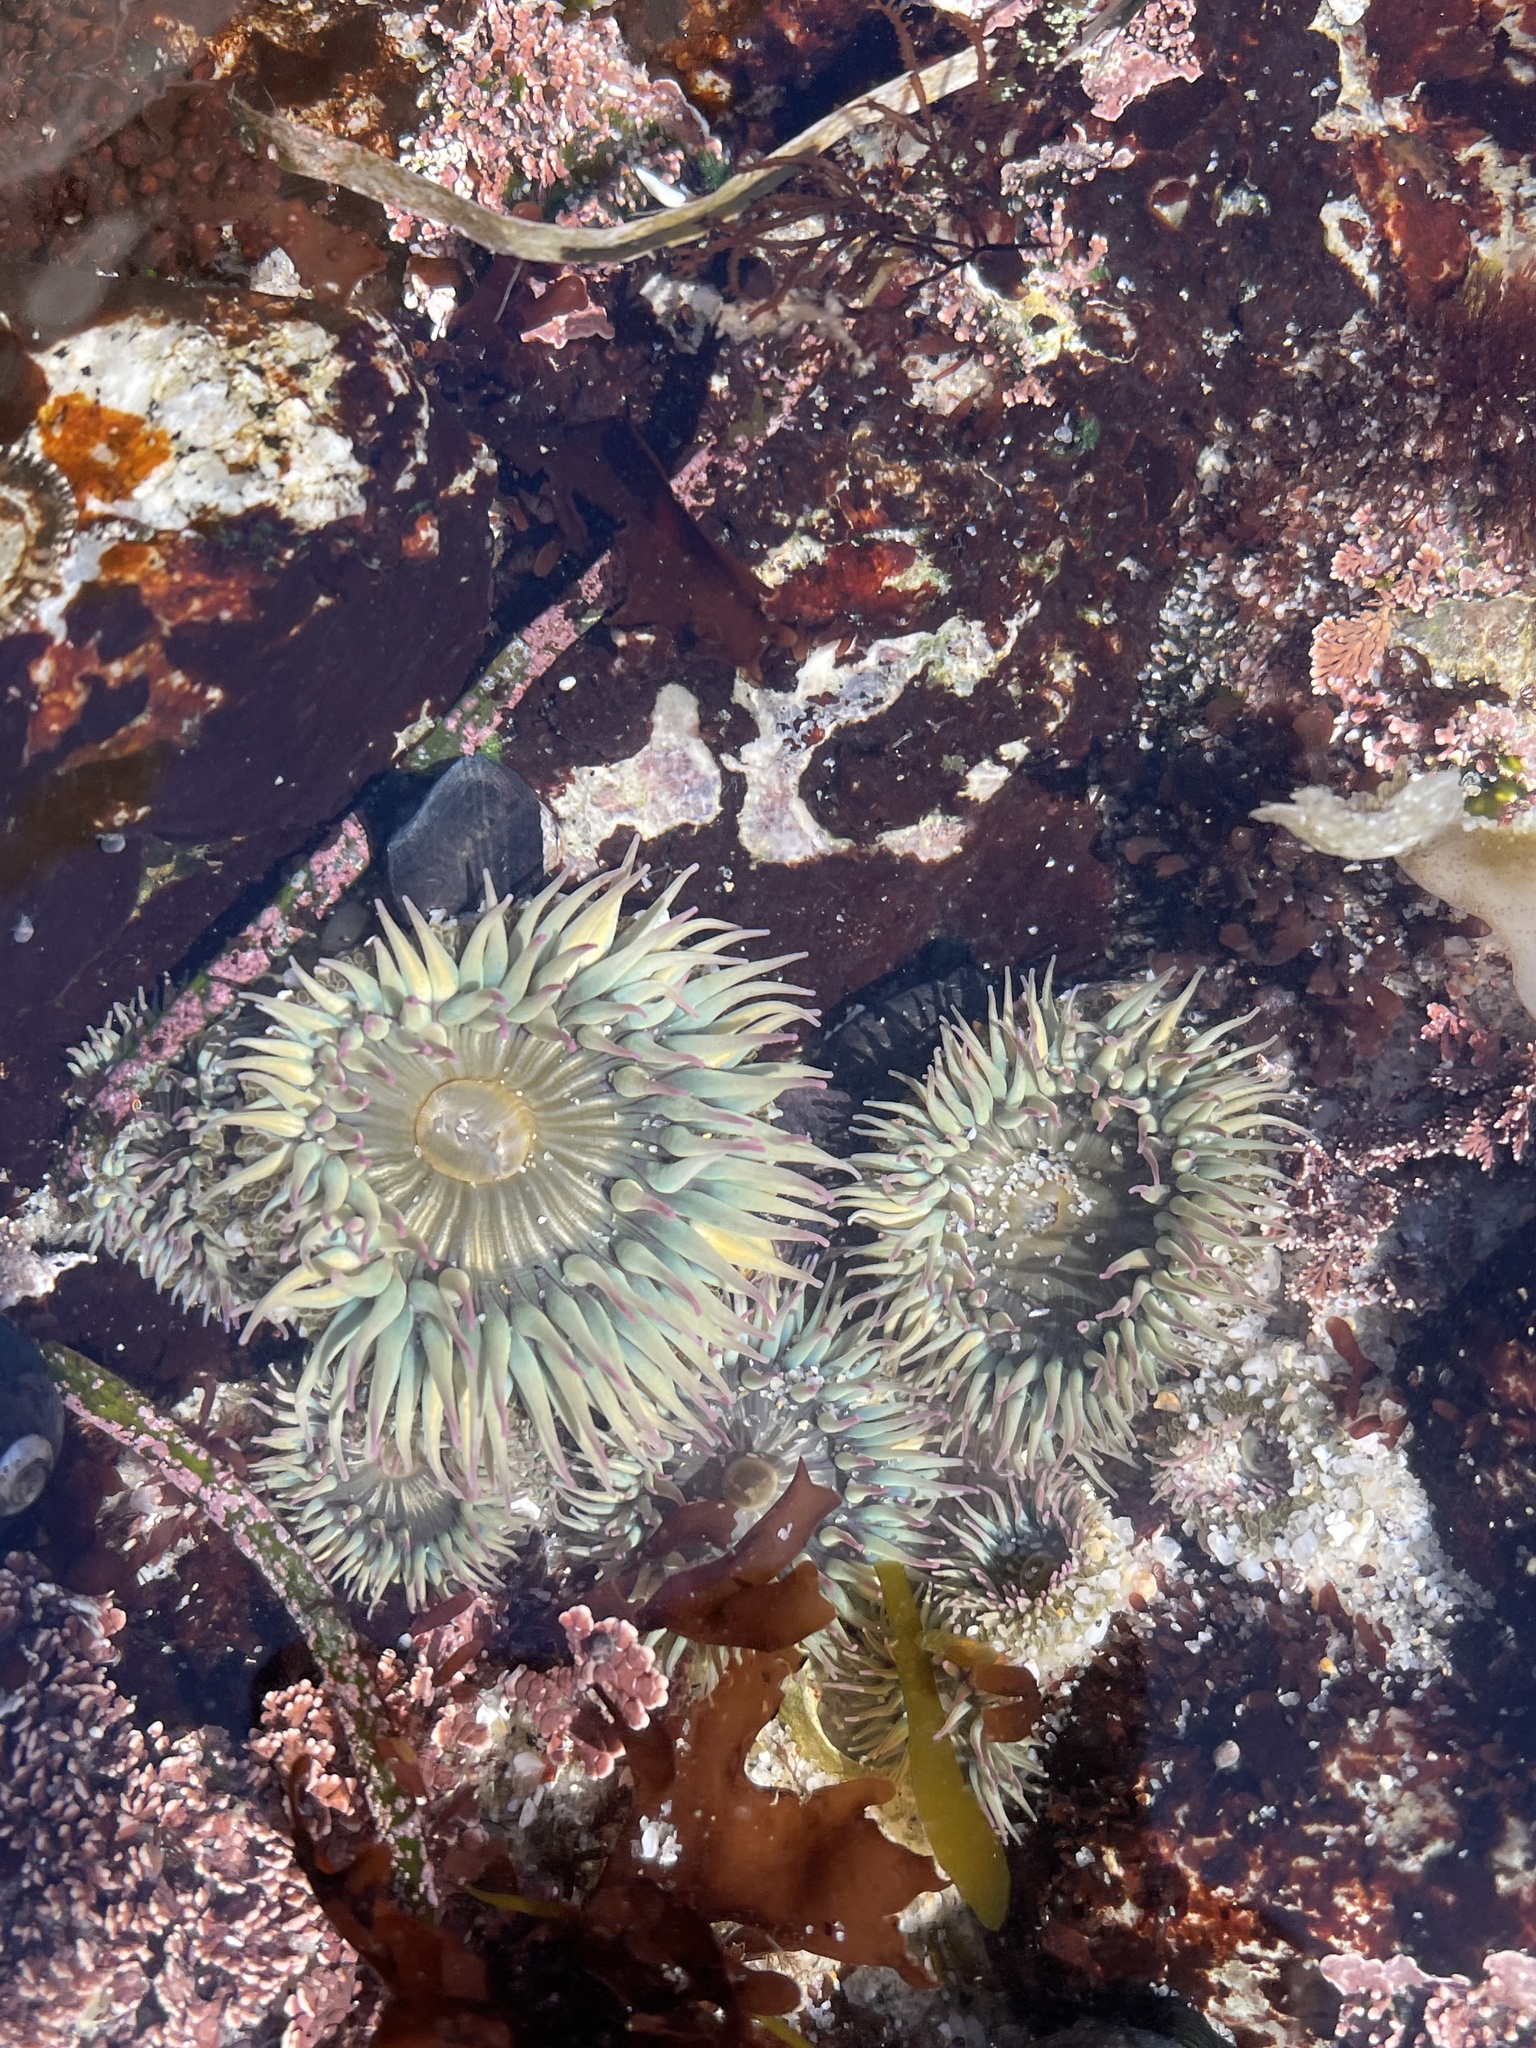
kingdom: Animalia
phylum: Cnidaria
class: Anthozoa
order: Actiniaria
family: Actiniidae
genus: Anthopleura
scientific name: Anthopleura elegantissima
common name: Clonal anemone
